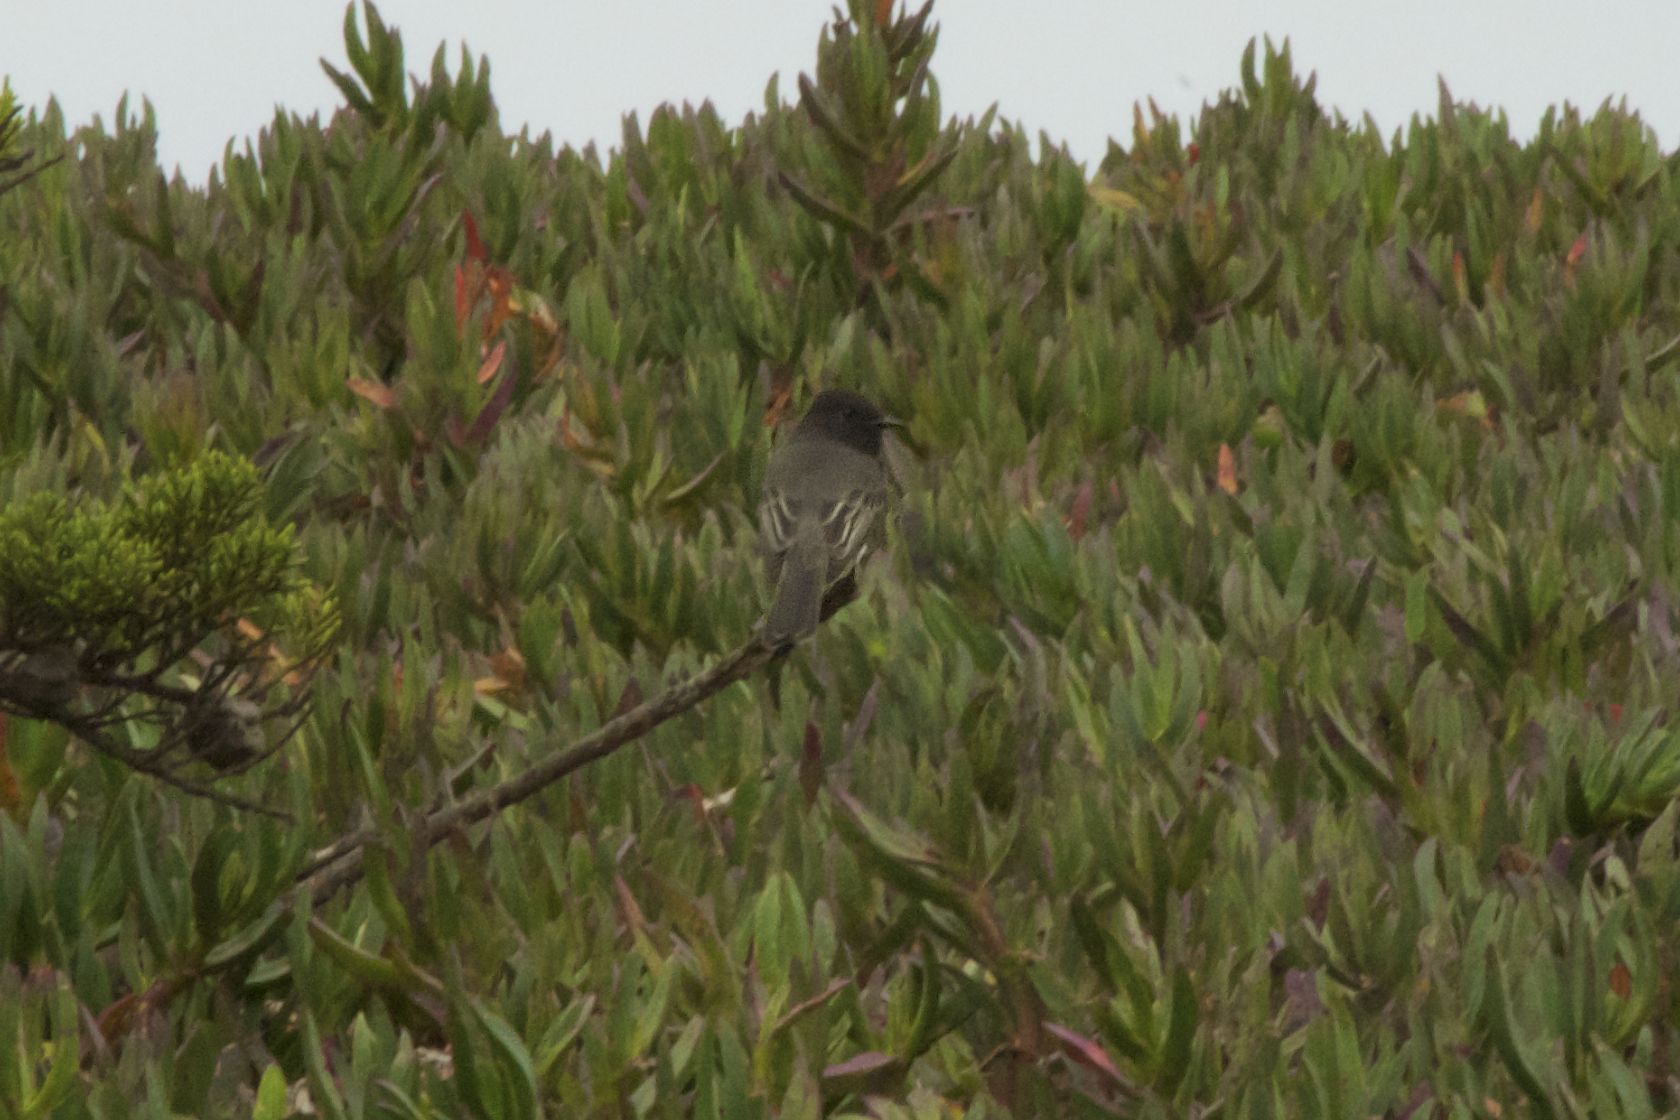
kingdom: Animalia
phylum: Chordata
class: Aves
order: Passeriformes
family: Tyrannidae
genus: Sayornis
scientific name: Sayornis nigricans
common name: Black phoebe
